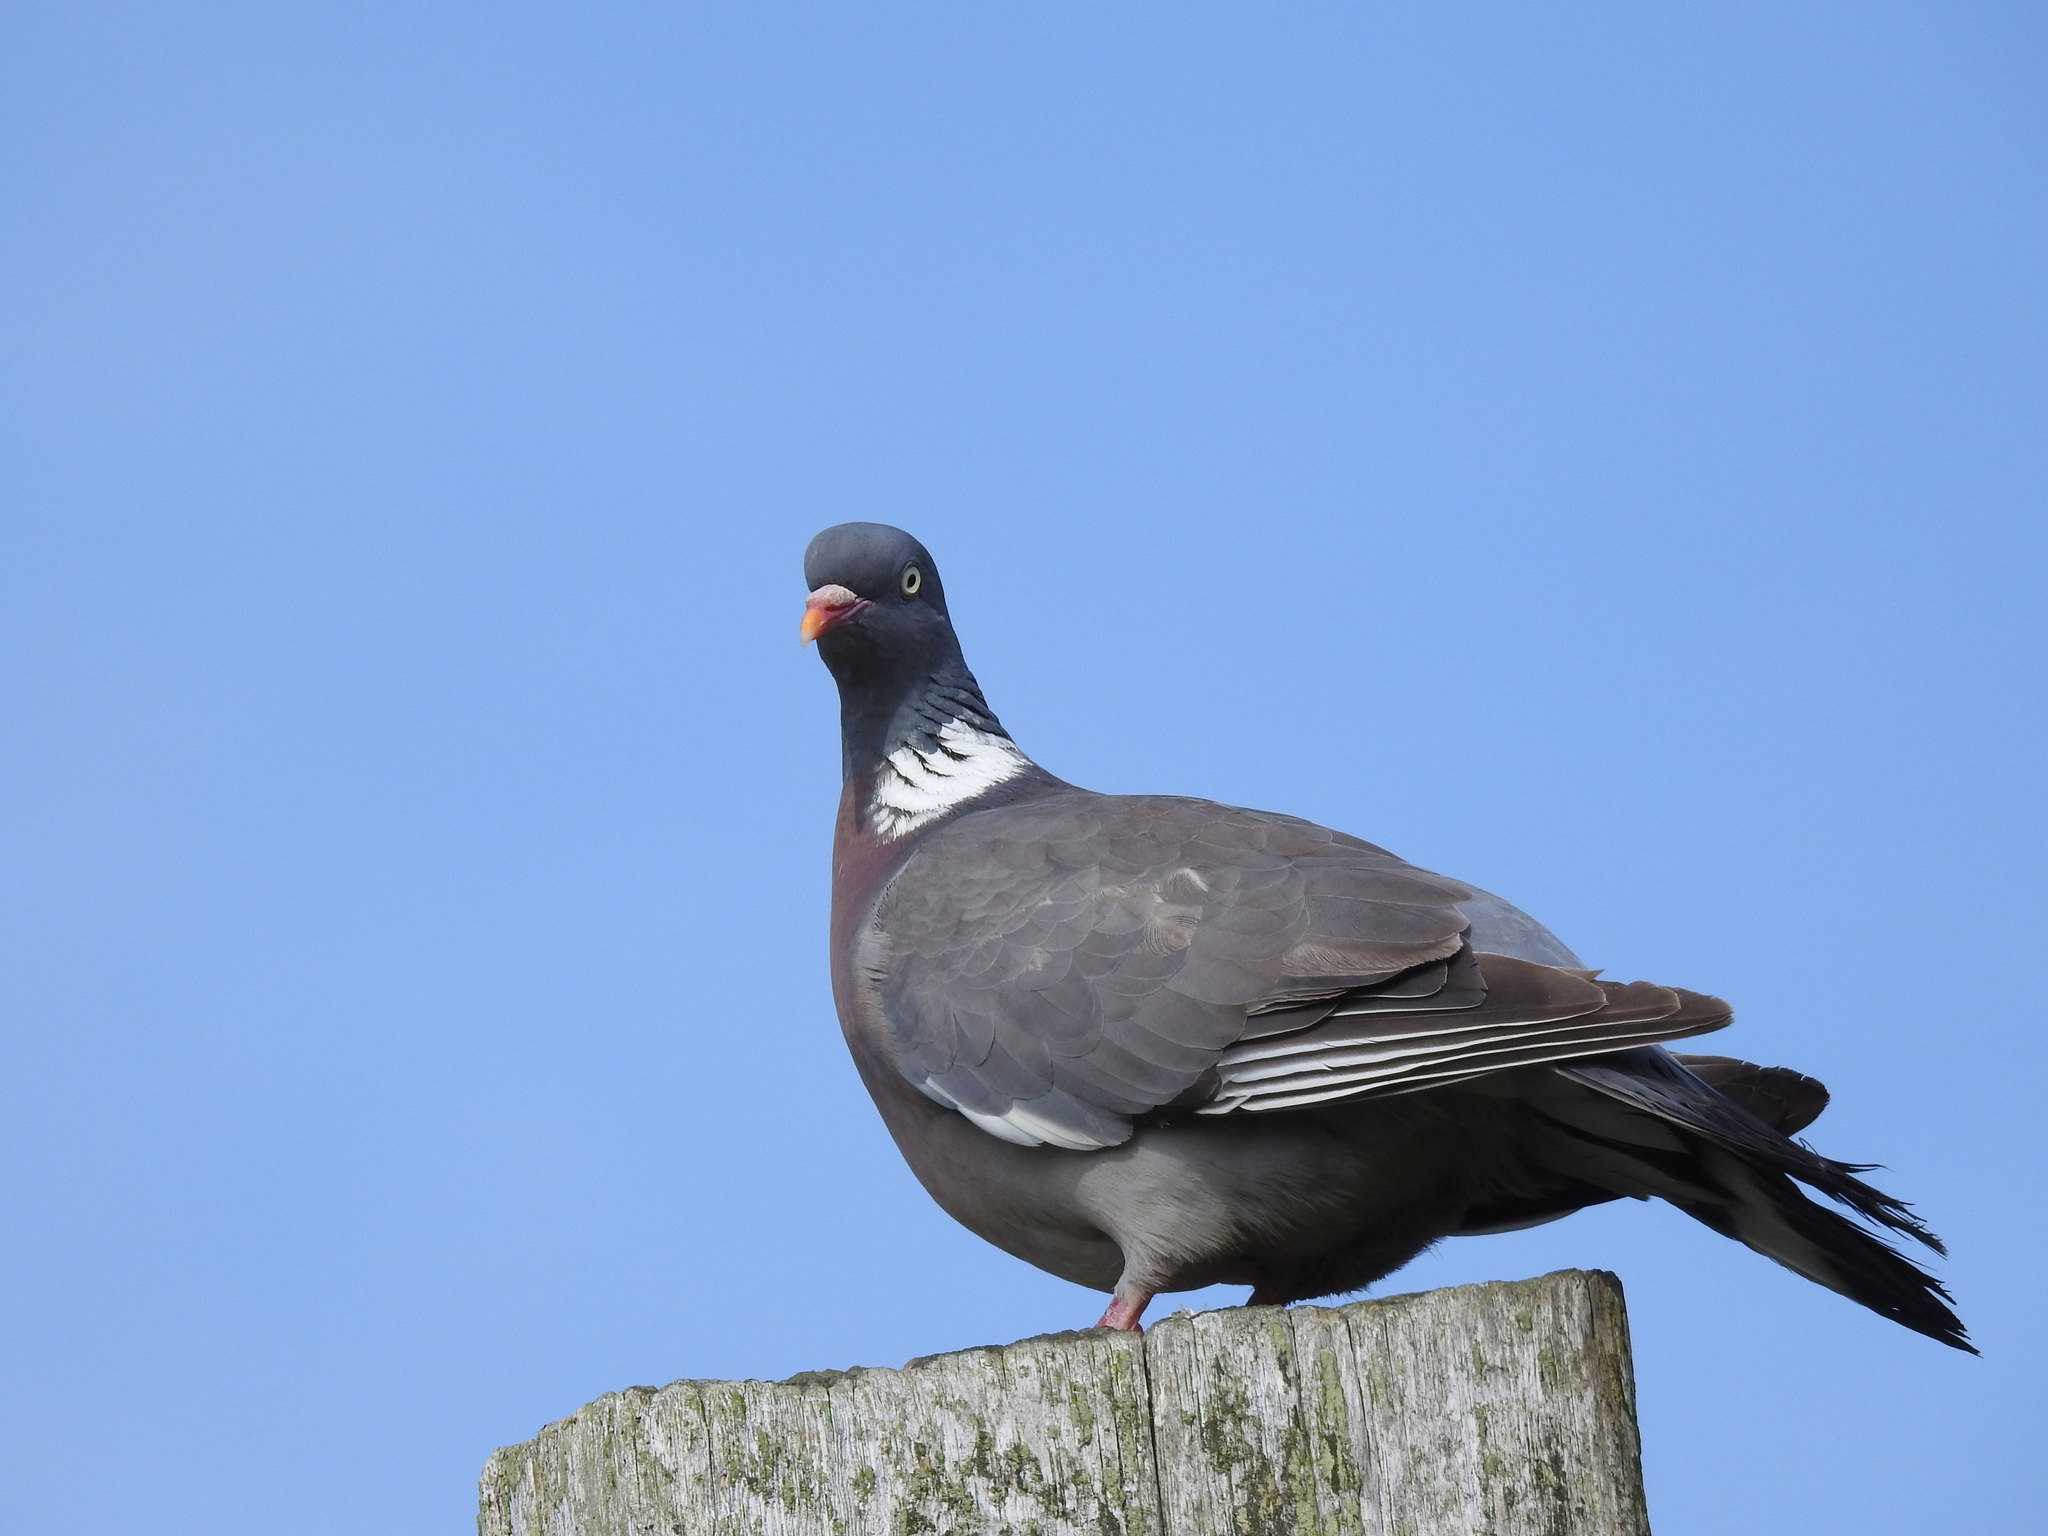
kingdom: Animalia
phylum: Chordata
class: Aves
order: Columbiformes
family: Columbidae
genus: Columba
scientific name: Columba palumbus
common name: Common wood pigeon
